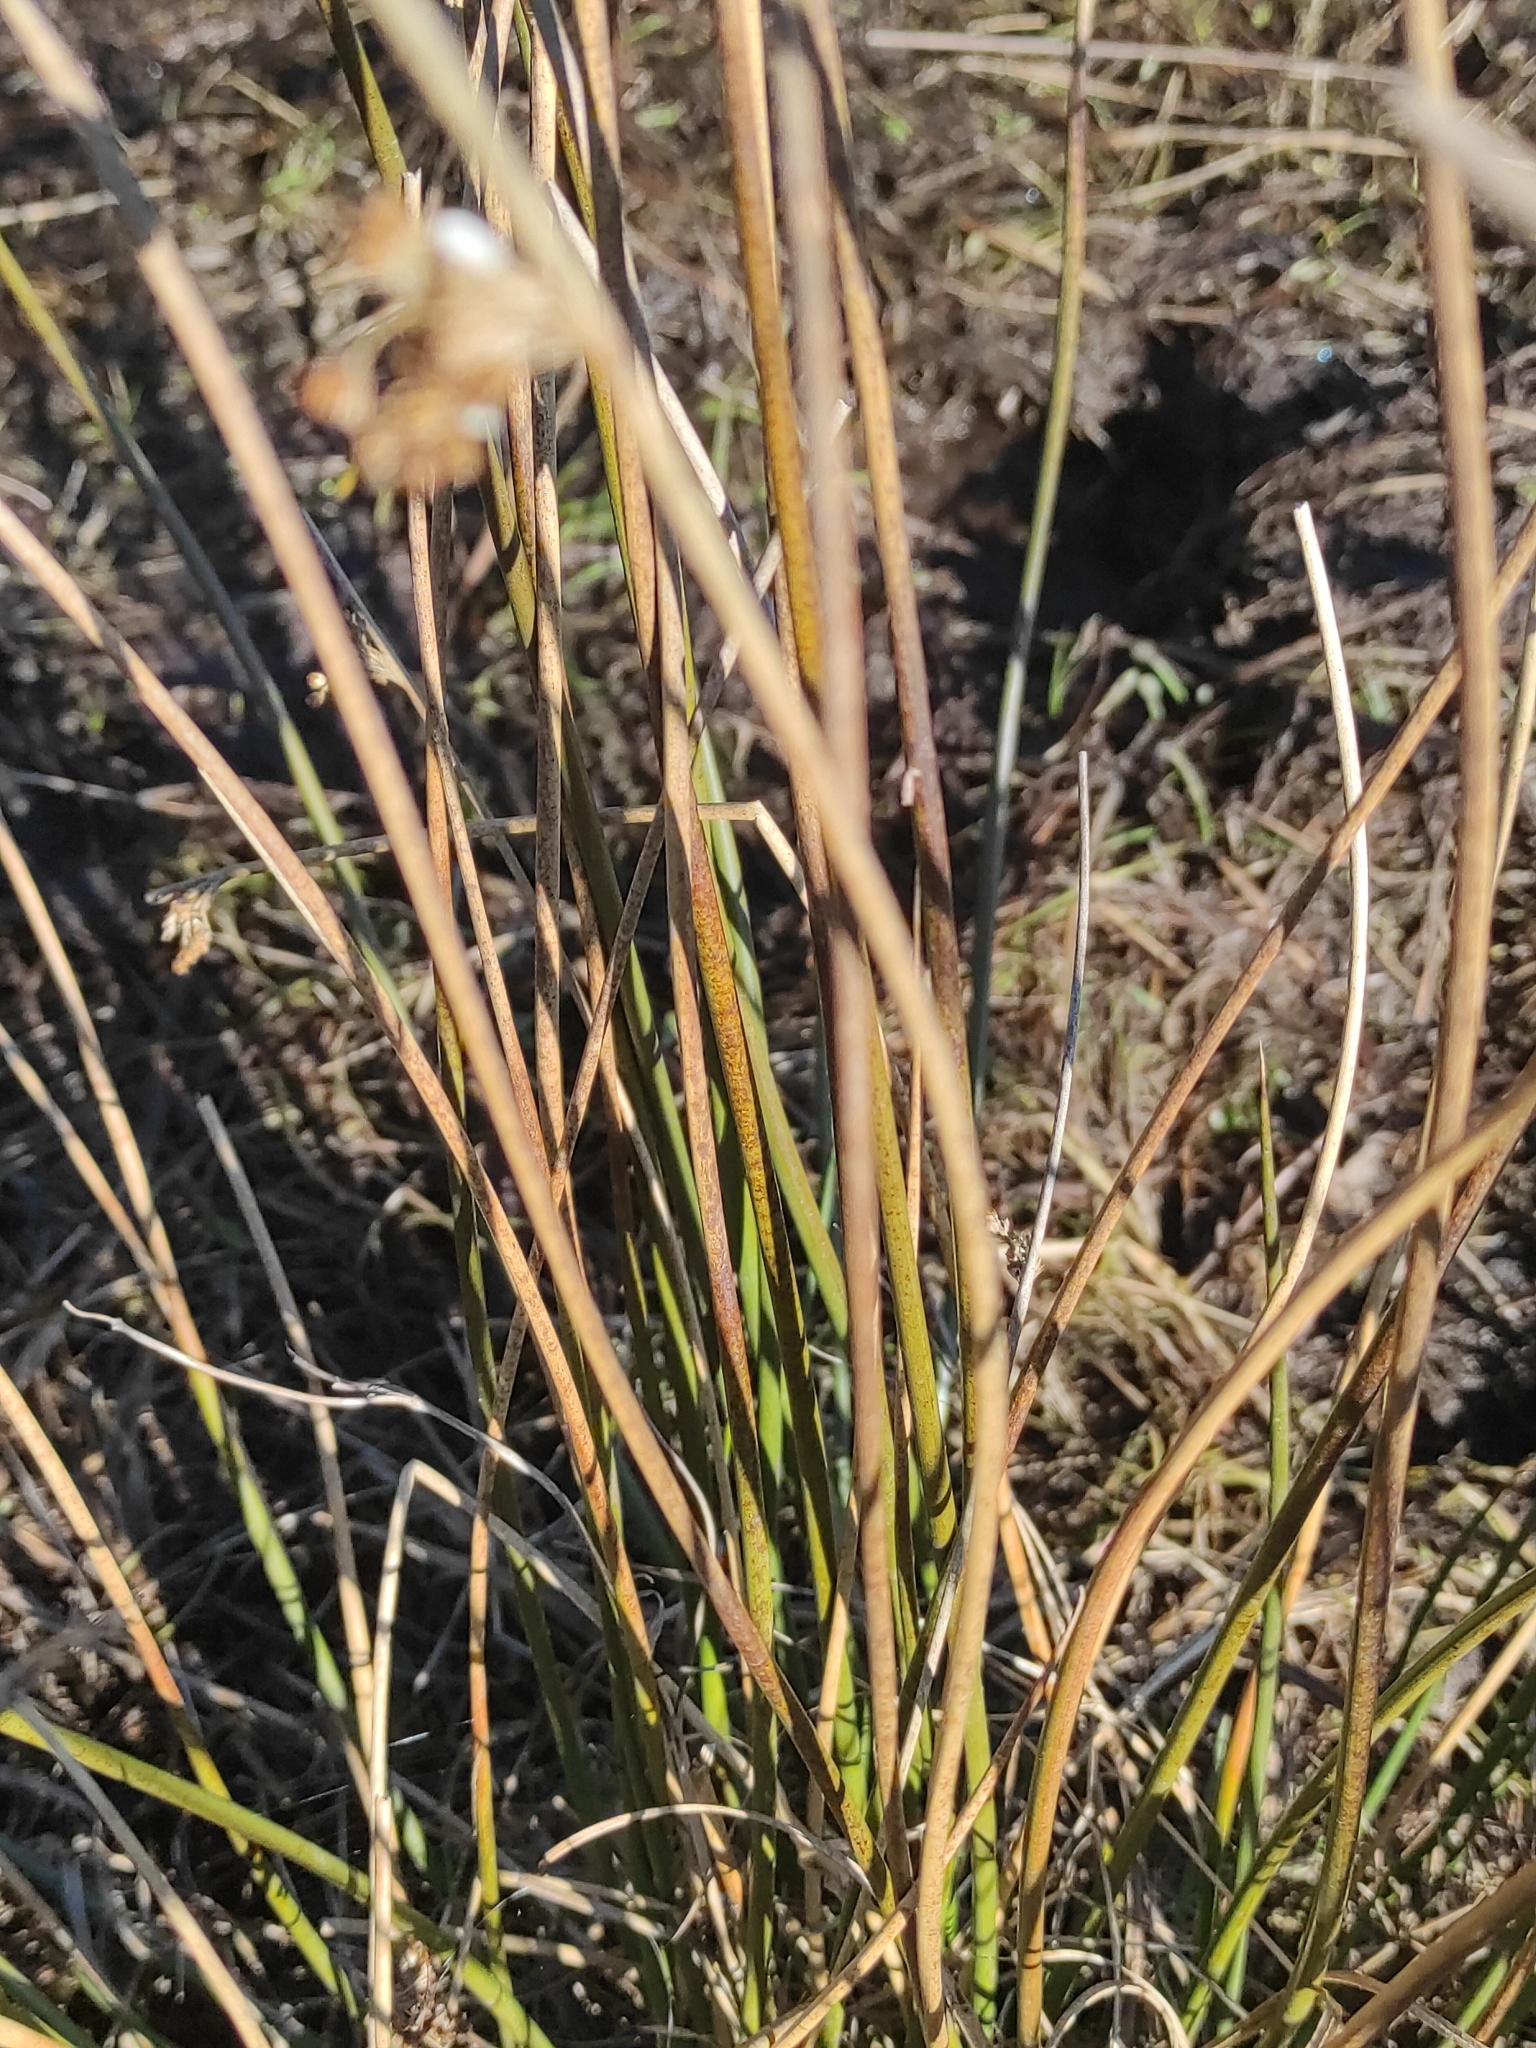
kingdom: Plantae
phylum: Tracheophyta
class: Liliopsida
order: Poales
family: Juncaceae
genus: Juncus
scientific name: Juncus effusus
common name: Soft rush
